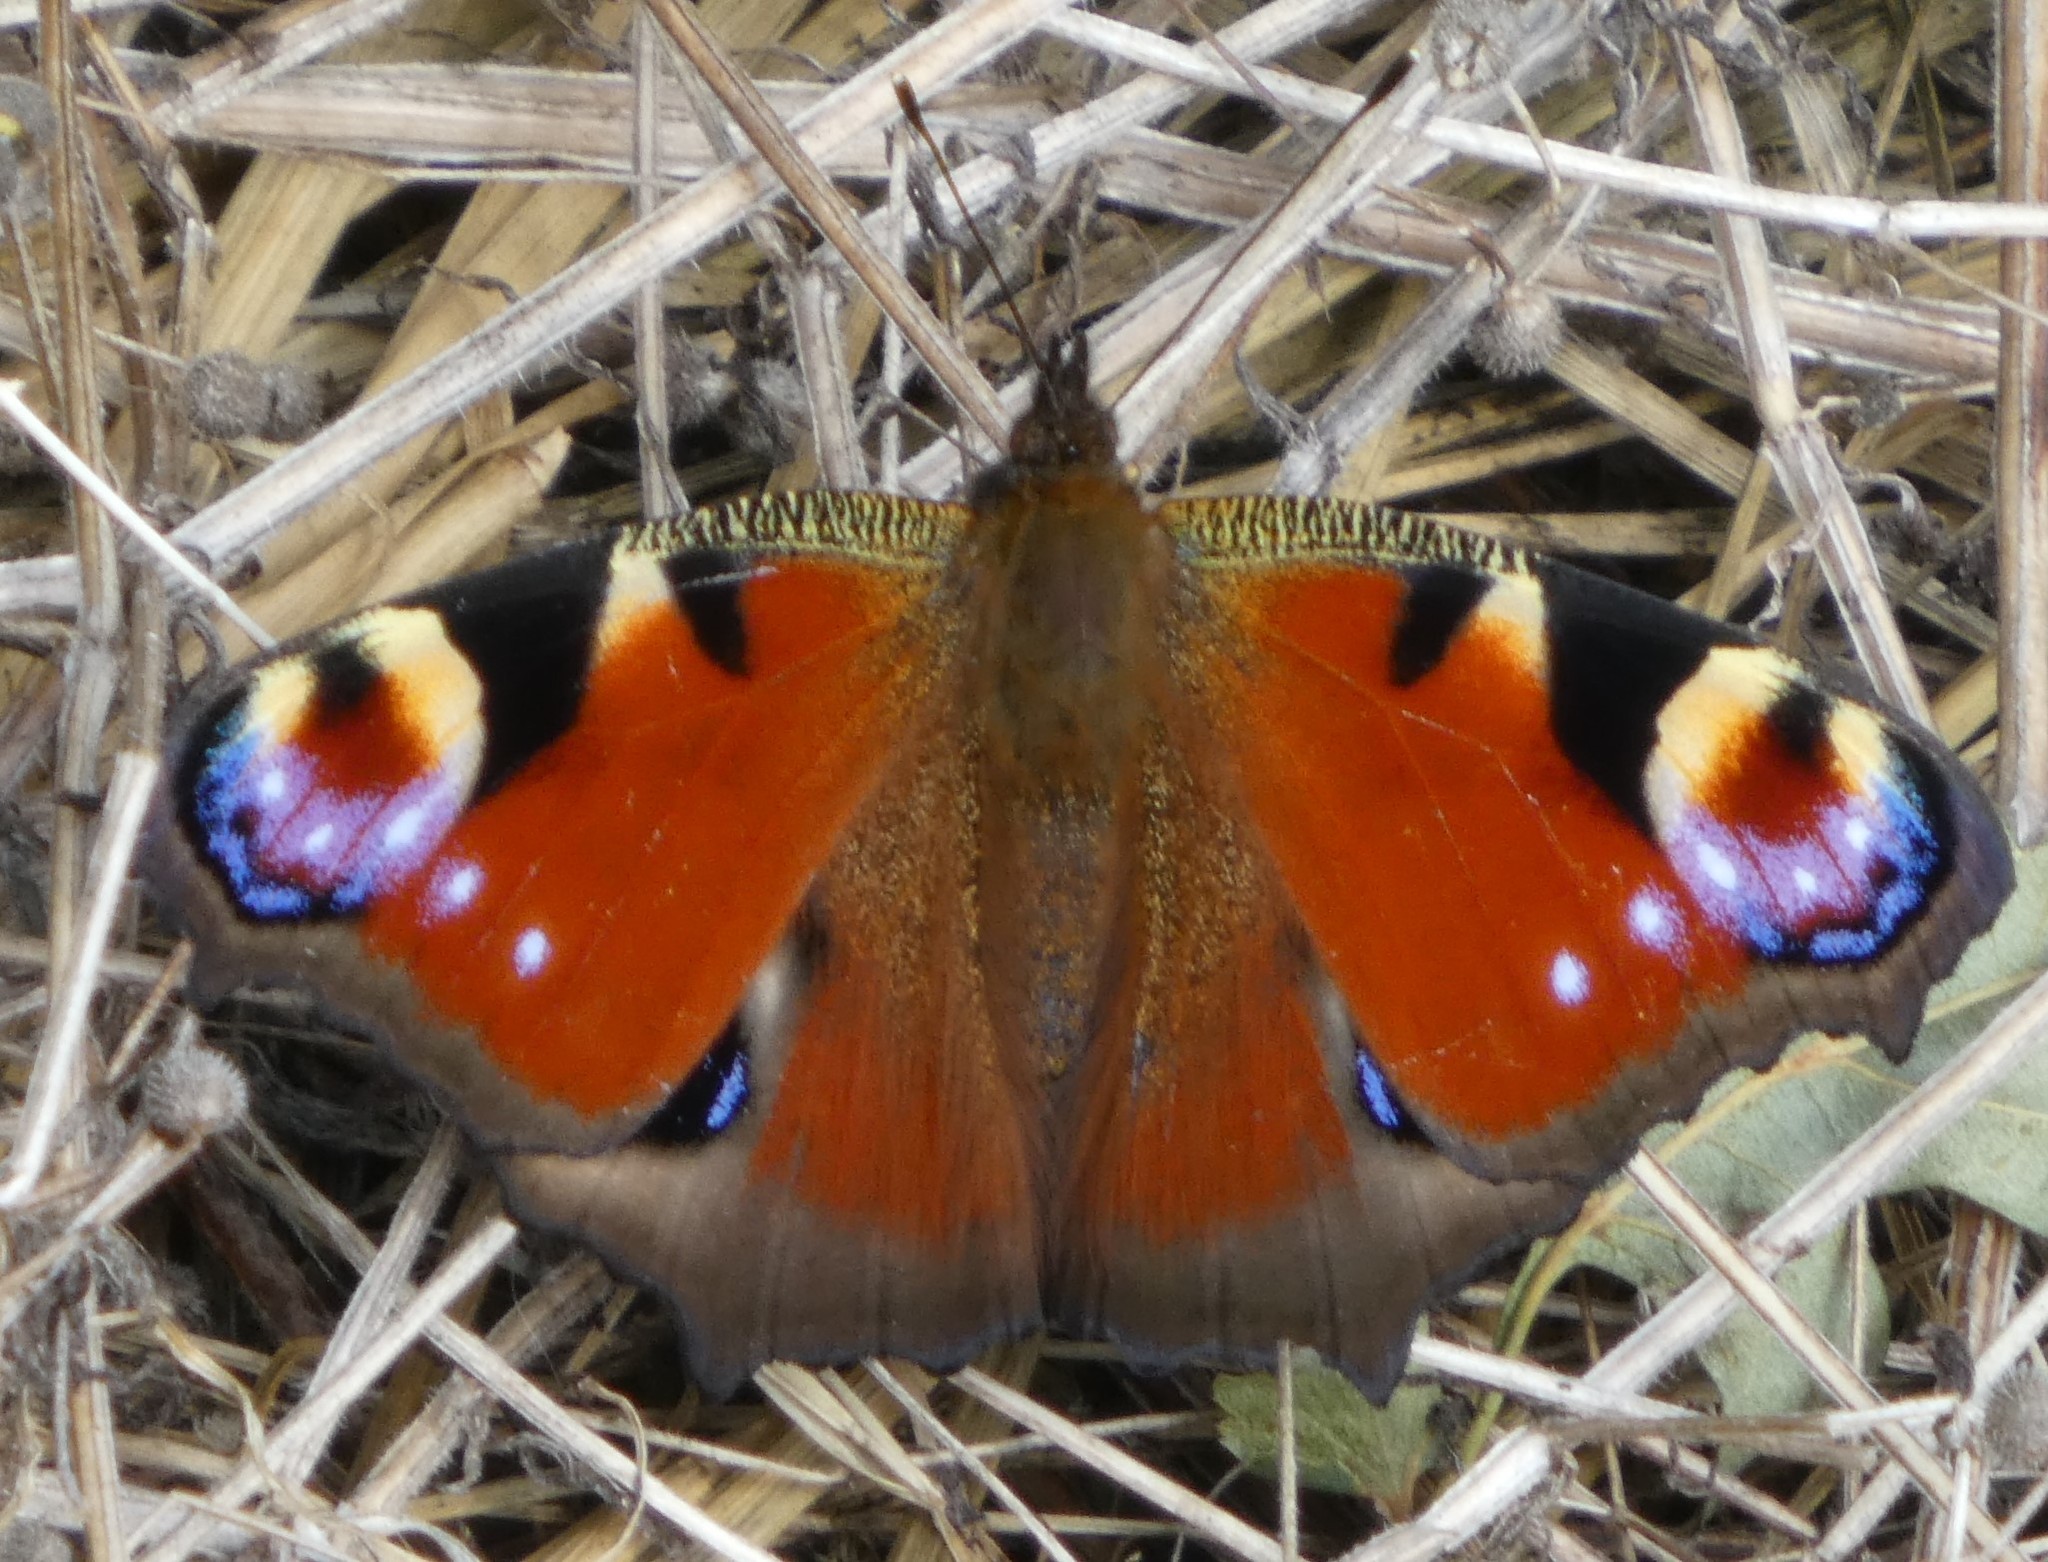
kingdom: Animalia
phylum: Arthropoda
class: Insecta
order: Lepidoptera
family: Nymphalidae
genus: Aglais
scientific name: Aglais io
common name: Peacock
